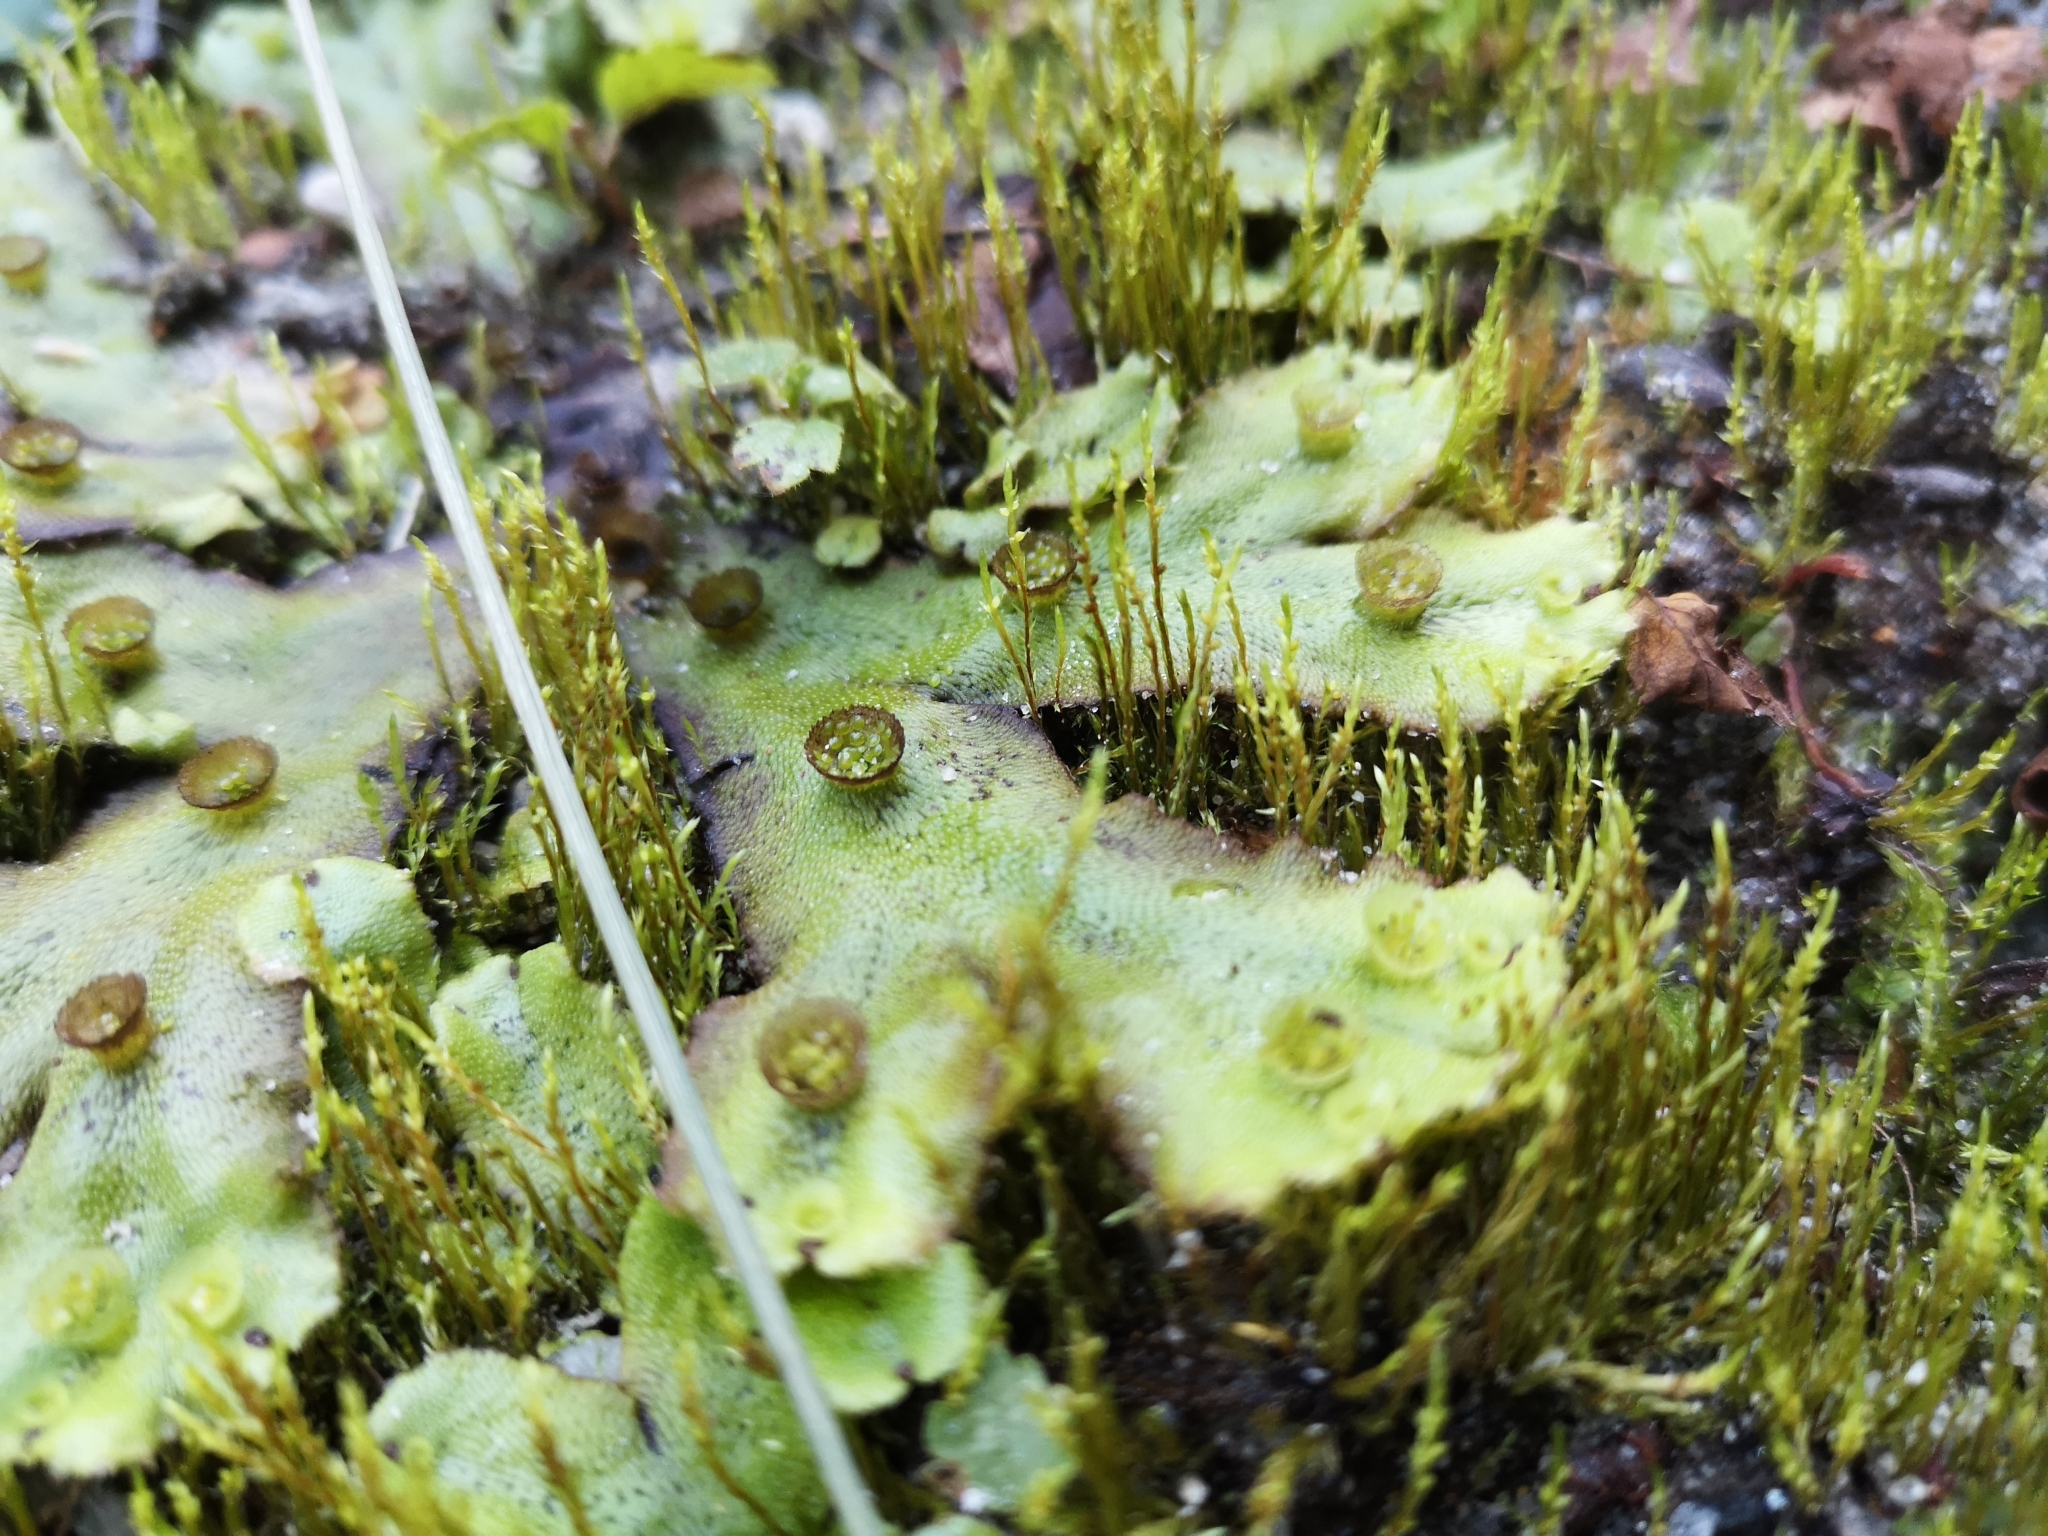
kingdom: Plantae
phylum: Marchantiophyta
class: Marchantiopsida
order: Marchantiales
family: Marchantiaceae
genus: Marchantia
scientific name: Marchantia polymorpha
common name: Common liverwort
